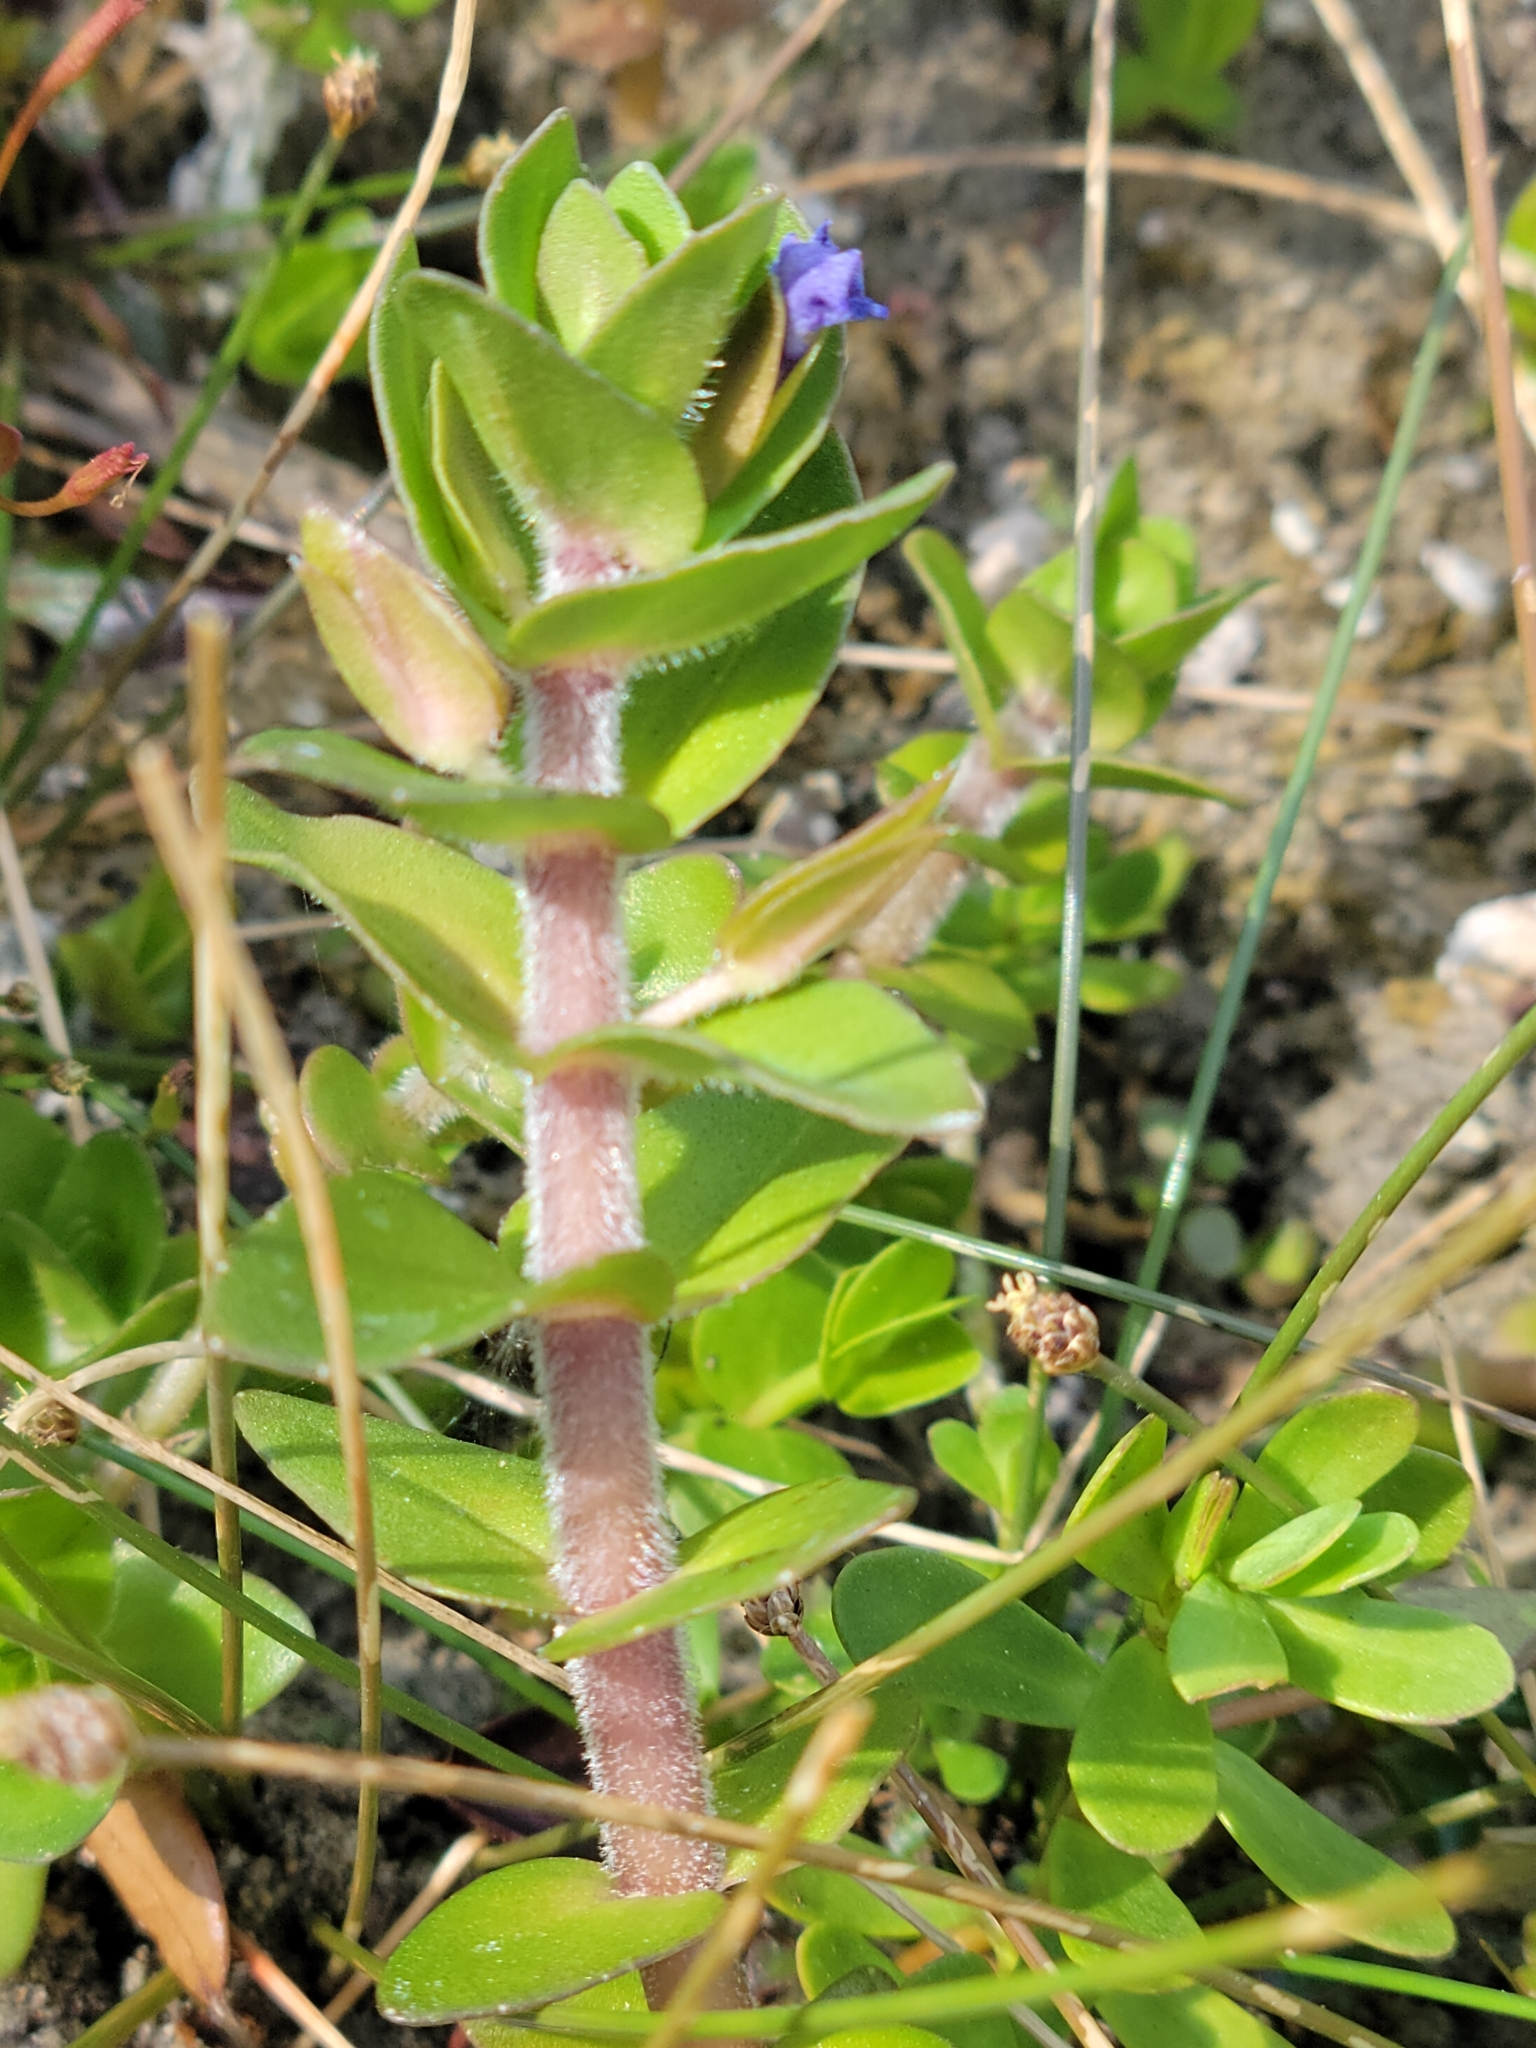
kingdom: Plantae
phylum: Tracheophyta
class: Magnoliopsida
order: Lamiales
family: Plantaginaceae
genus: Bacopa
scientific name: Bacopa caroliniana
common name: Lemon bacopa
